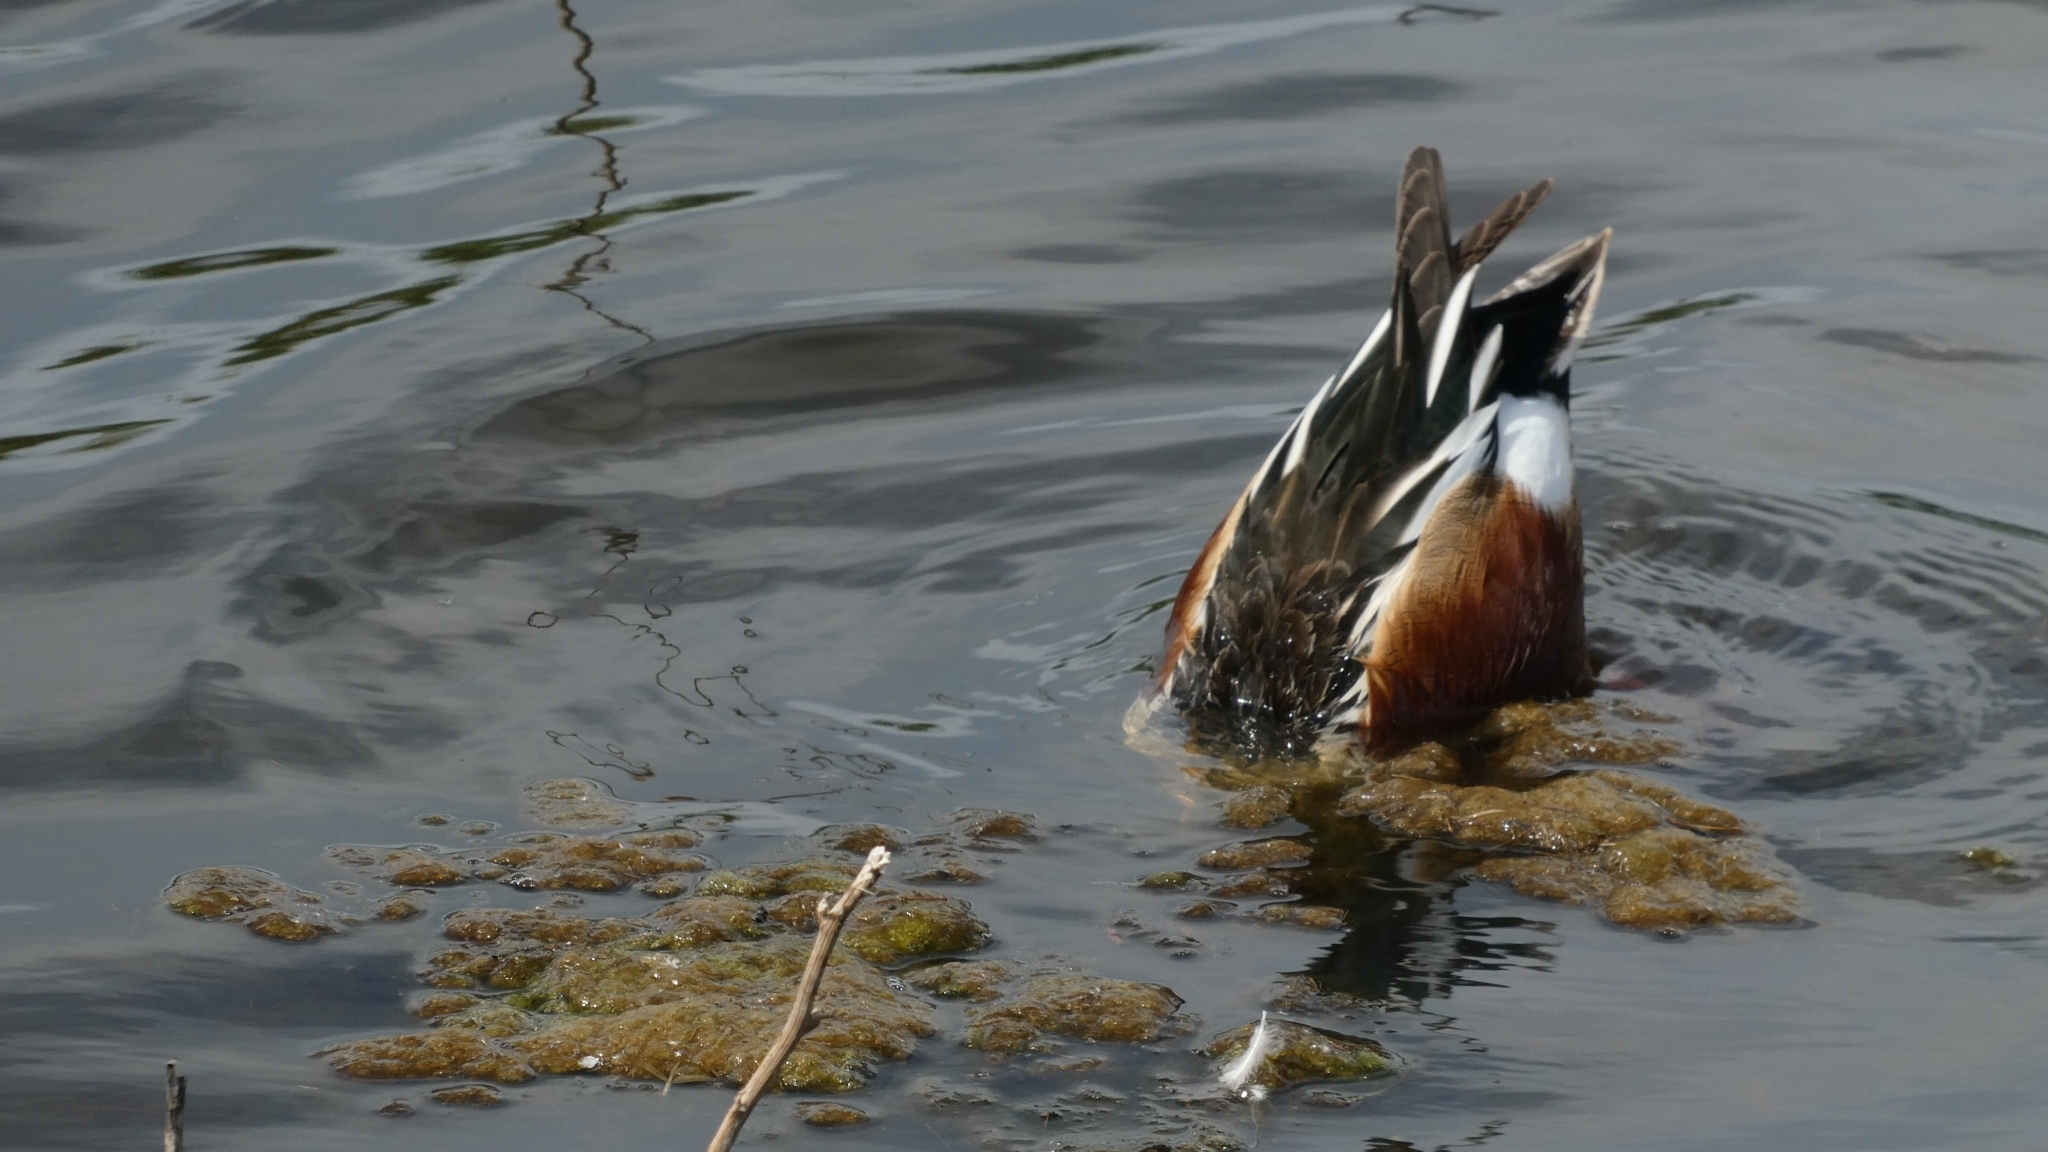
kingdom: Animalia
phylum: Chordata
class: Aves
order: Anseriformes
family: Anatidae
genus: Spatula
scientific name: Spatula clypeata
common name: Northern shoveler
